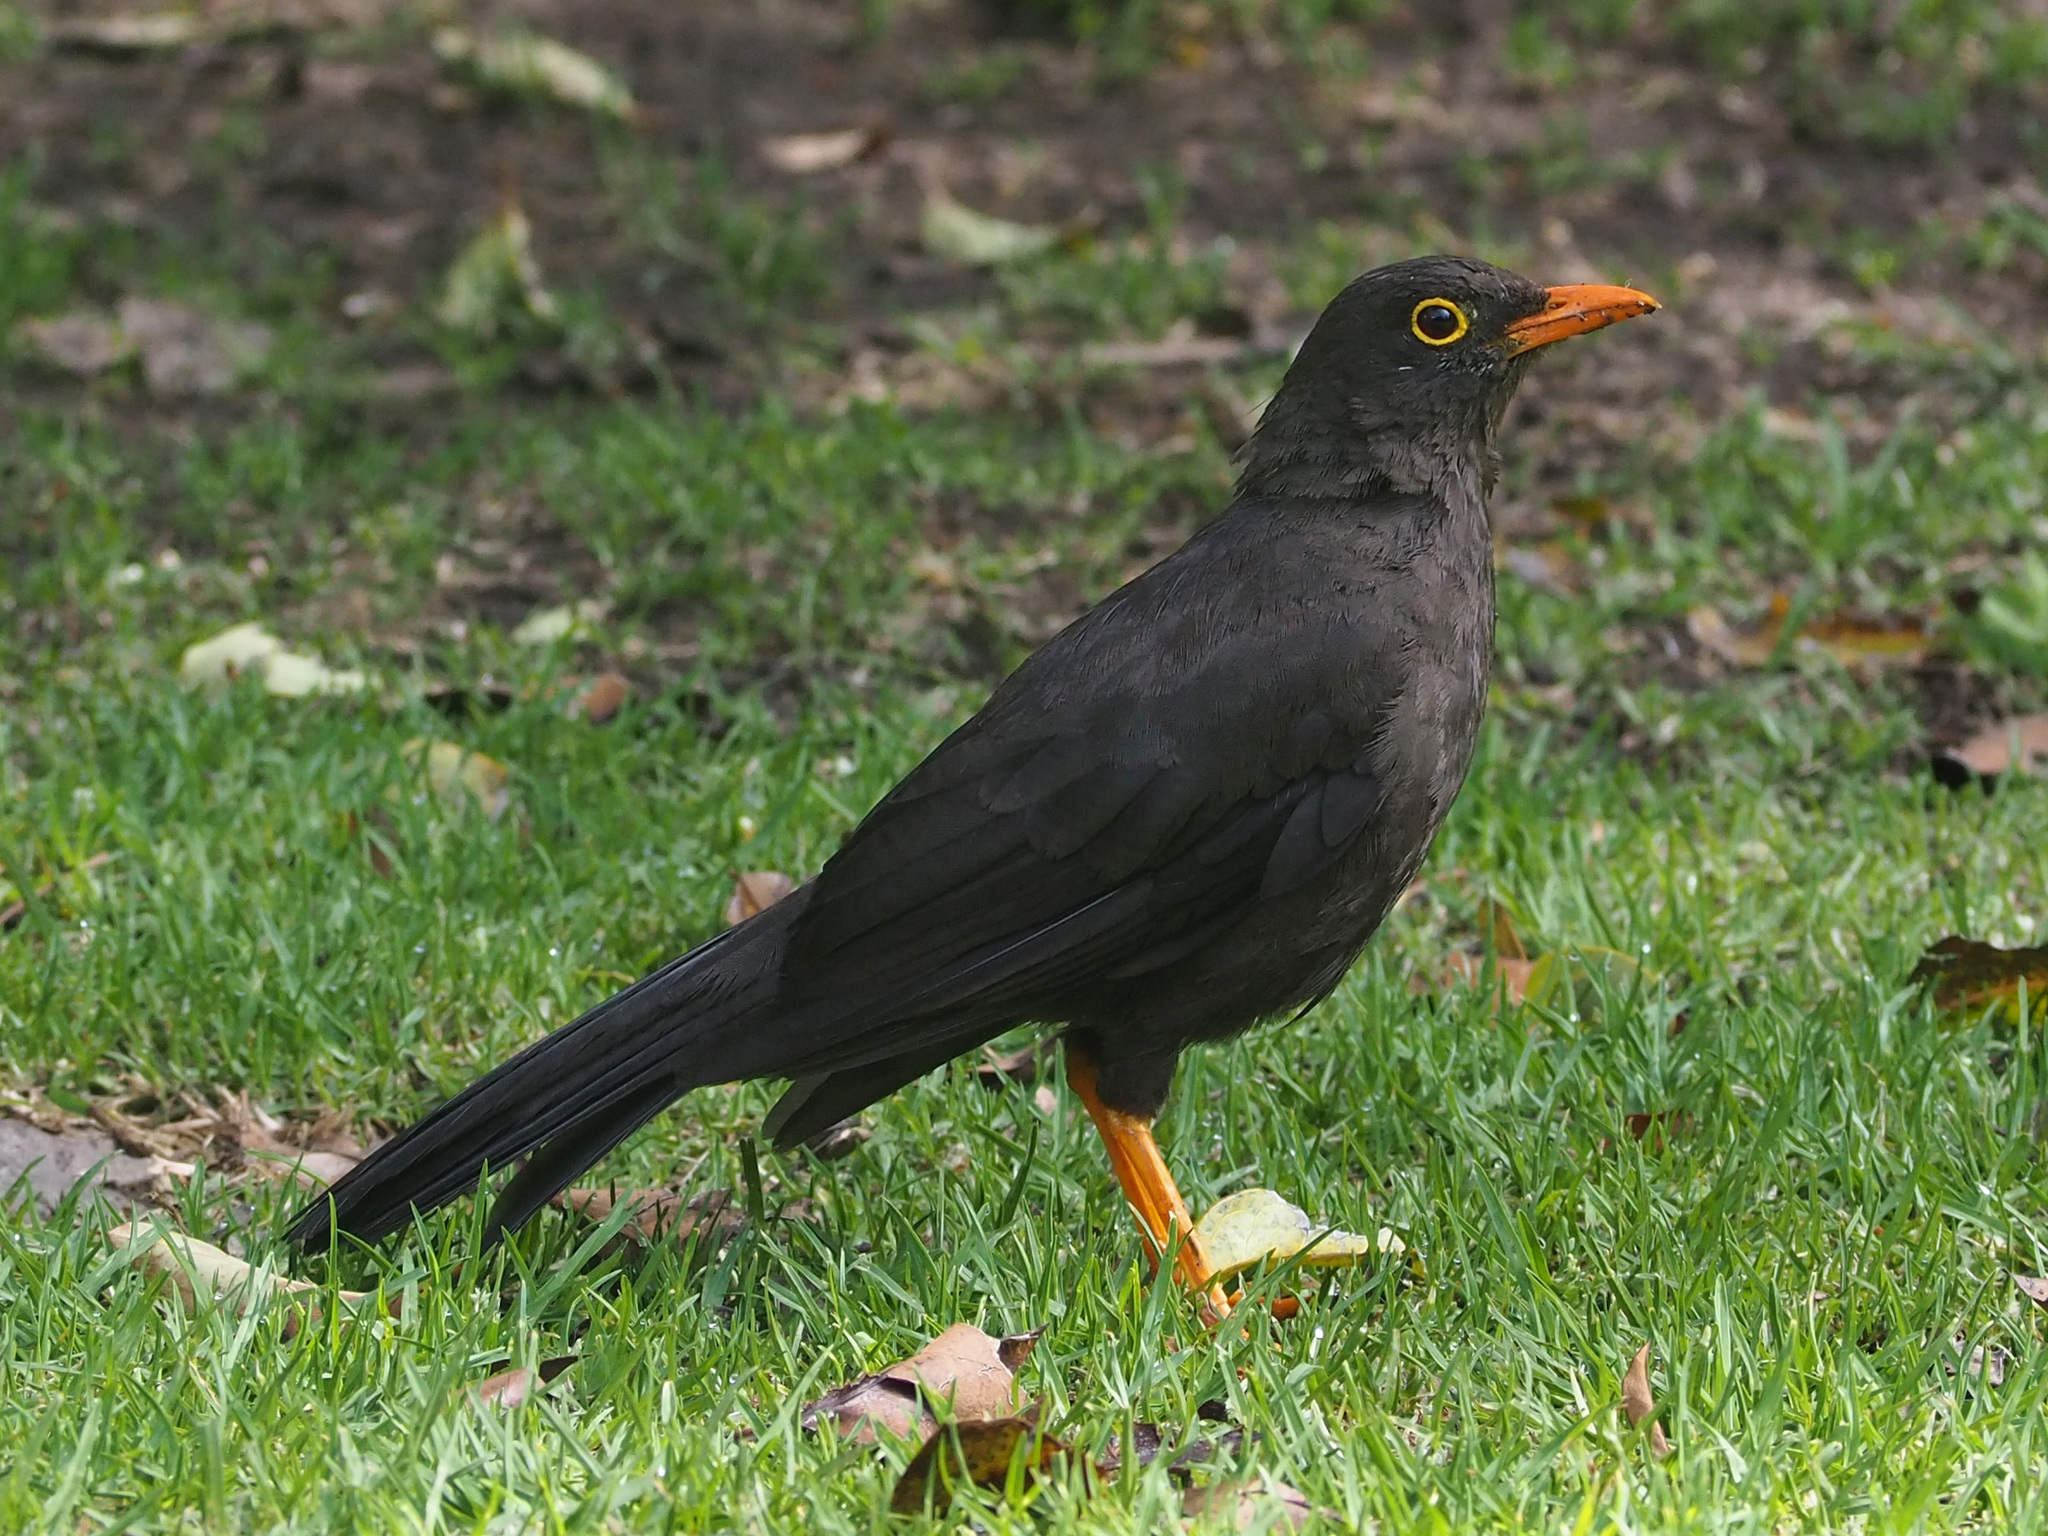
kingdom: Animalia
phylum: Chordata
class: Aves
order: Passeriformes
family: Turdidae
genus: Turdus
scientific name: Turdus fuscater
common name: Great thrush
